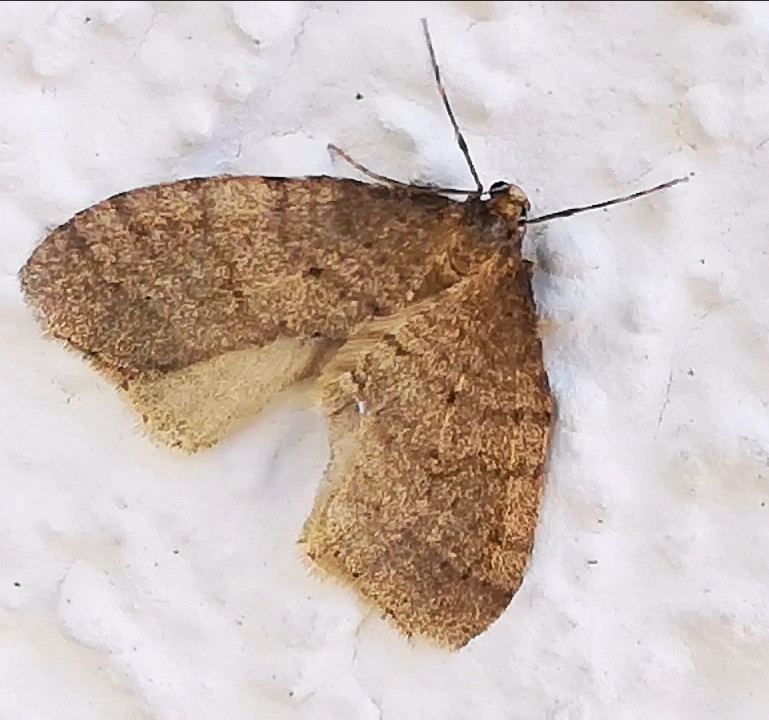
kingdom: Animalia
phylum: Arthropoda
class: Insecta
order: Lepidoptera
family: Geometridae
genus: Operophtera
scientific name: Operophtera brumata
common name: Winter moth
